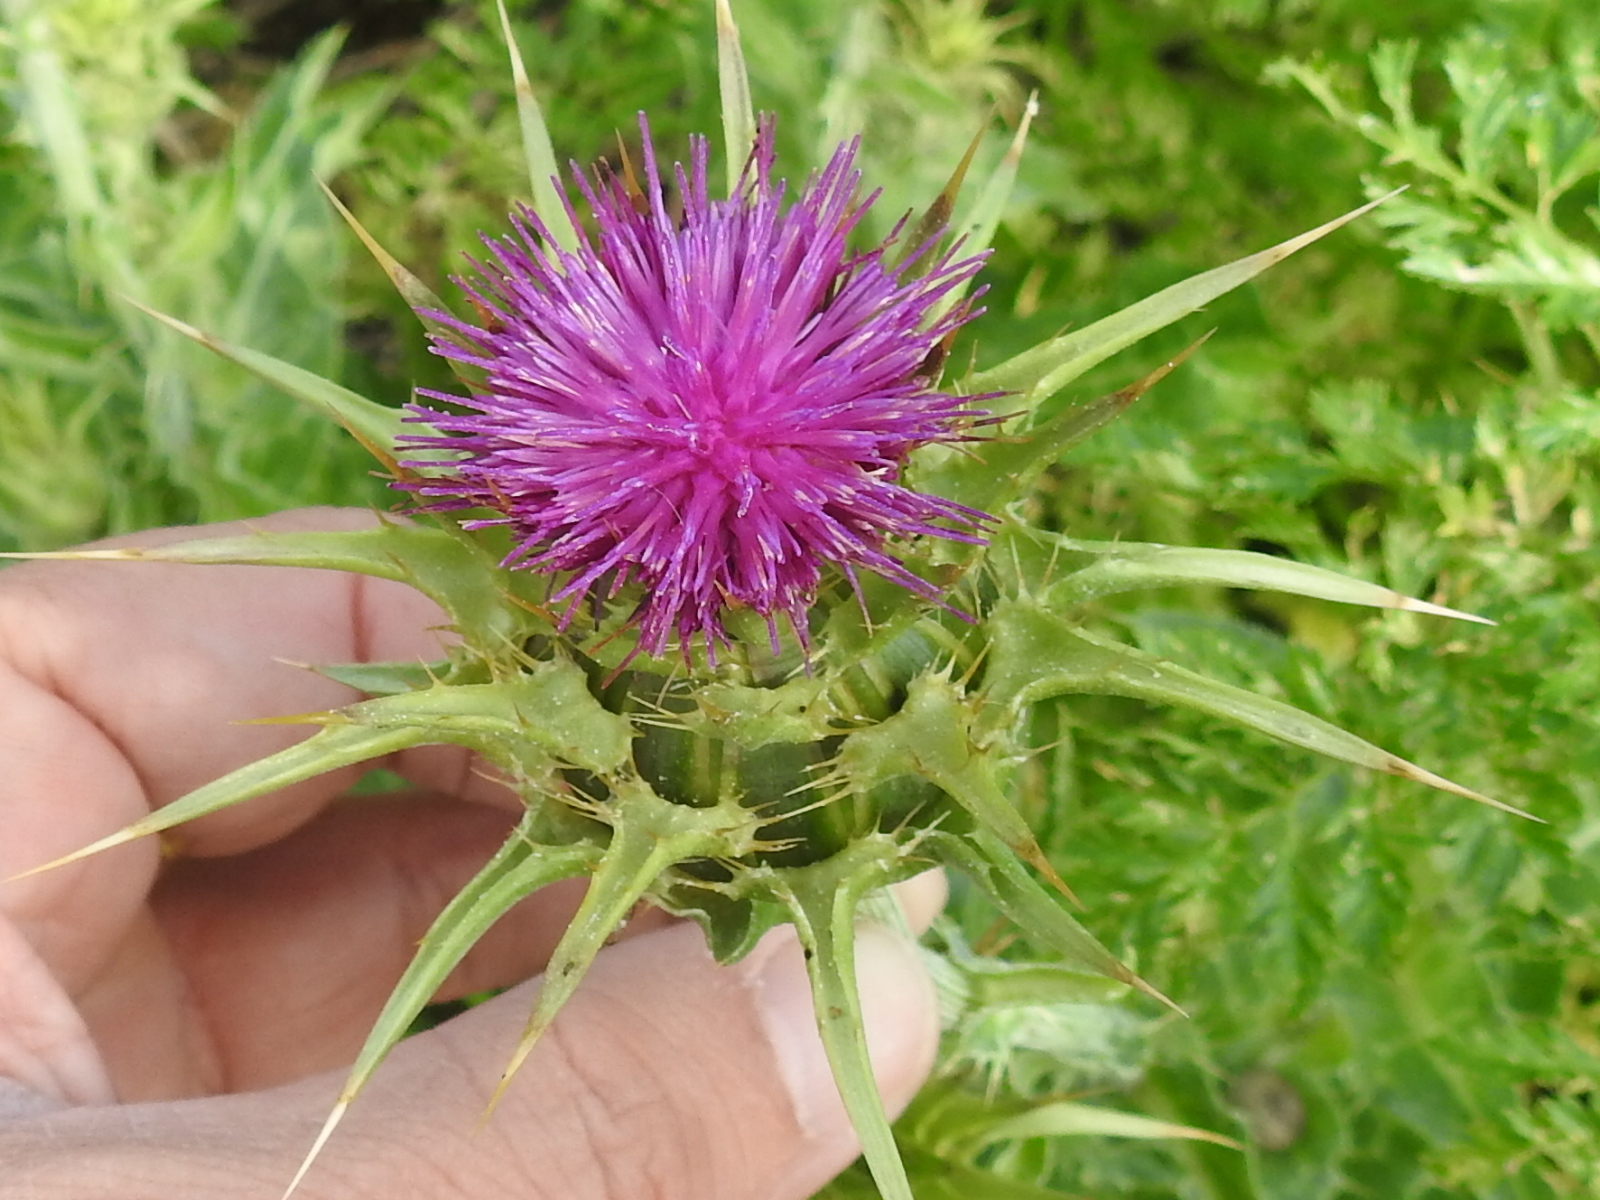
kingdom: Plantae
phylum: Tracheophyta
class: Magnoliopsida
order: Asterales
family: Asteraceae
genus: Silybum
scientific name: Silybum marianum
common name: Milk thistle
